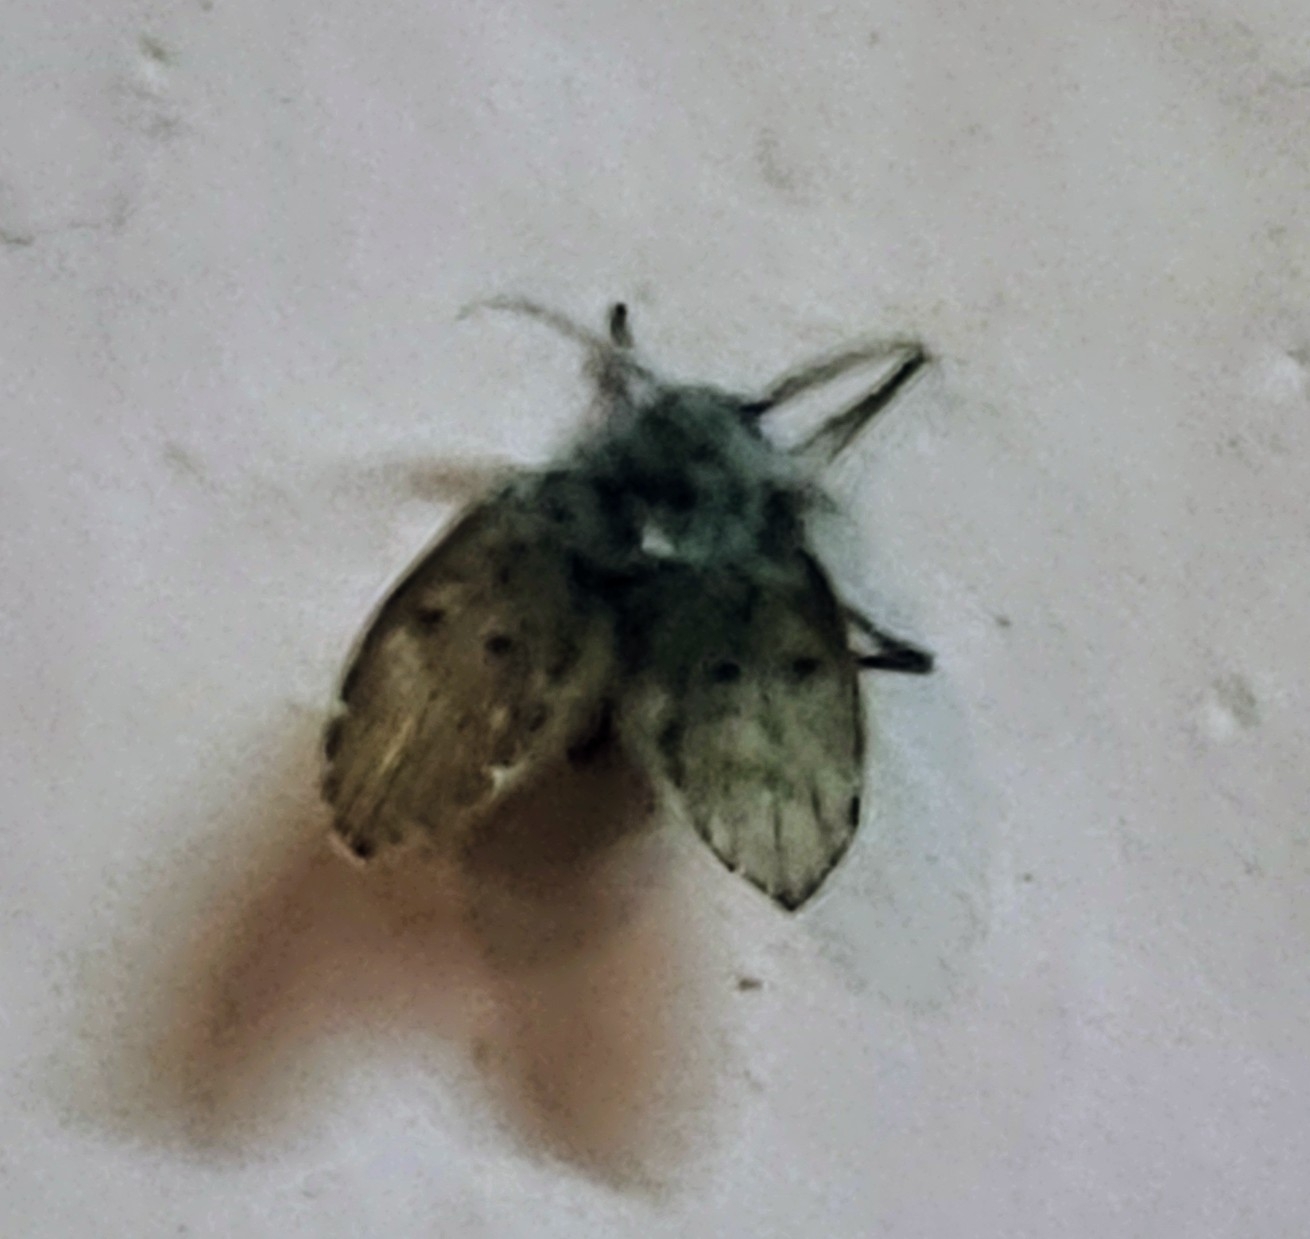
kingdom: Animalia
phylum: Arthropoda
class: Insecta
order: Diptera
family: Psychodidae
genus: Clogmia
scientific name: Clogmia albipunctatus
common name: White-spotted moth fly
